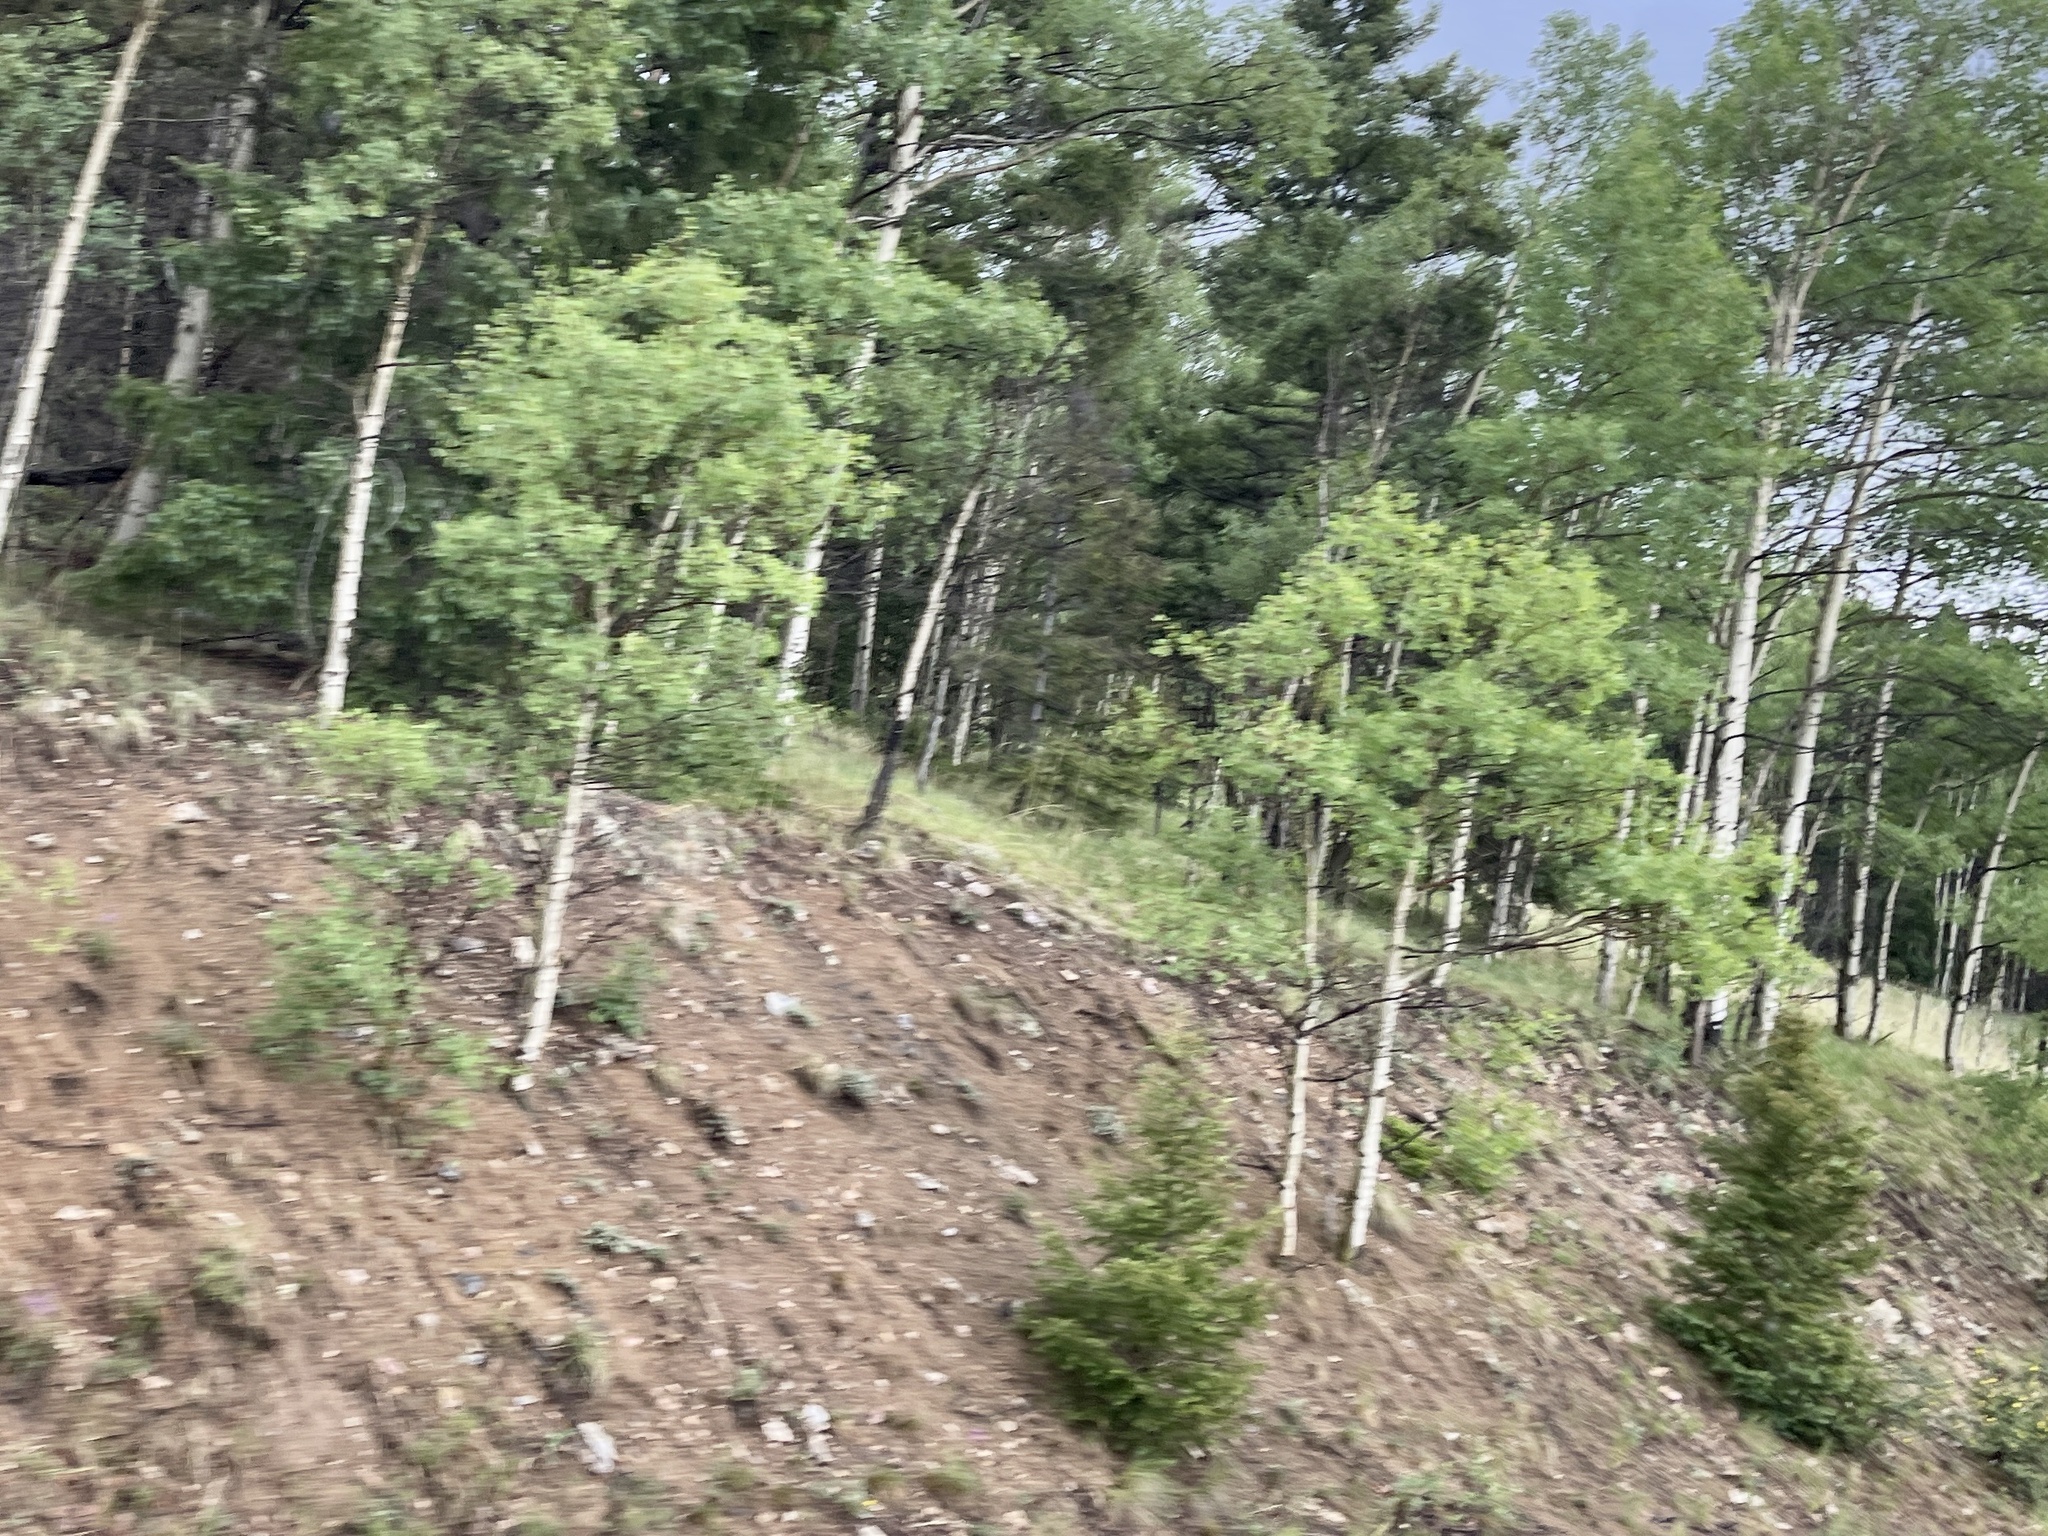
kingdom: Plantae
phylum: Tracheophyta
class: Magnoliopsida
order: Malpighiales
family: Salicaceae
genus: Populus
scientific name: Populus tremuloides
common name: Quaking aspen
